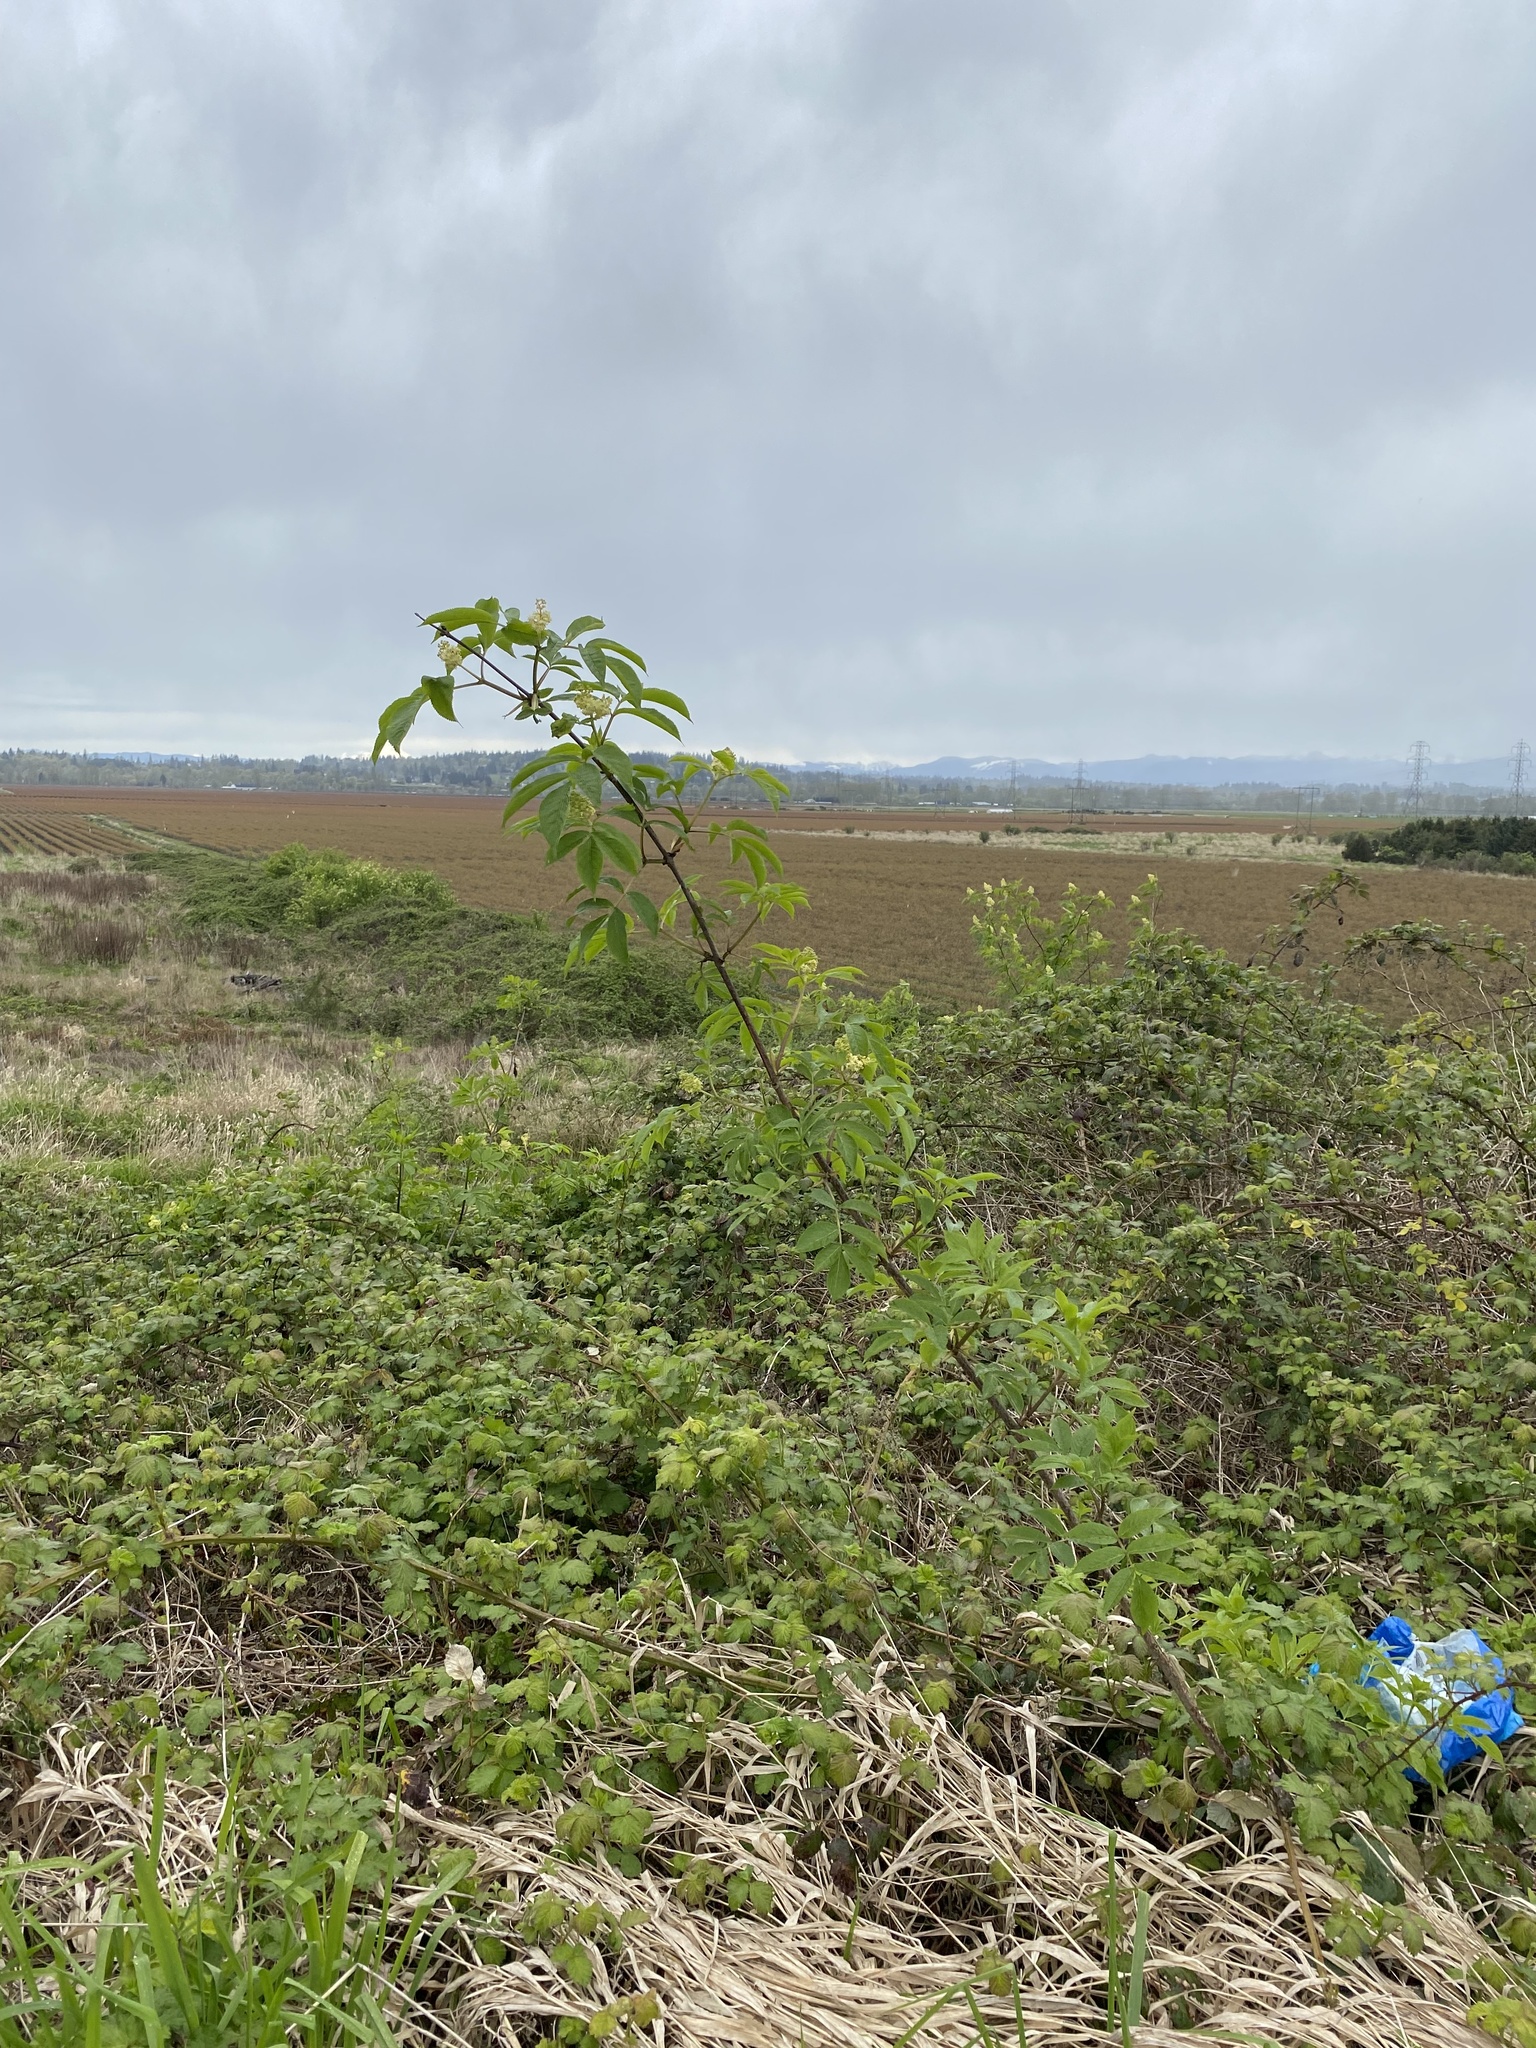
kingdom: Plantae
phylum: Tracheophyta
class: Magnoliopsida
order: Dipsacales
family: Viburnaceae
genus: Sambucus
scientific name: Sambucus racemosa
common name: Red-berried elder
